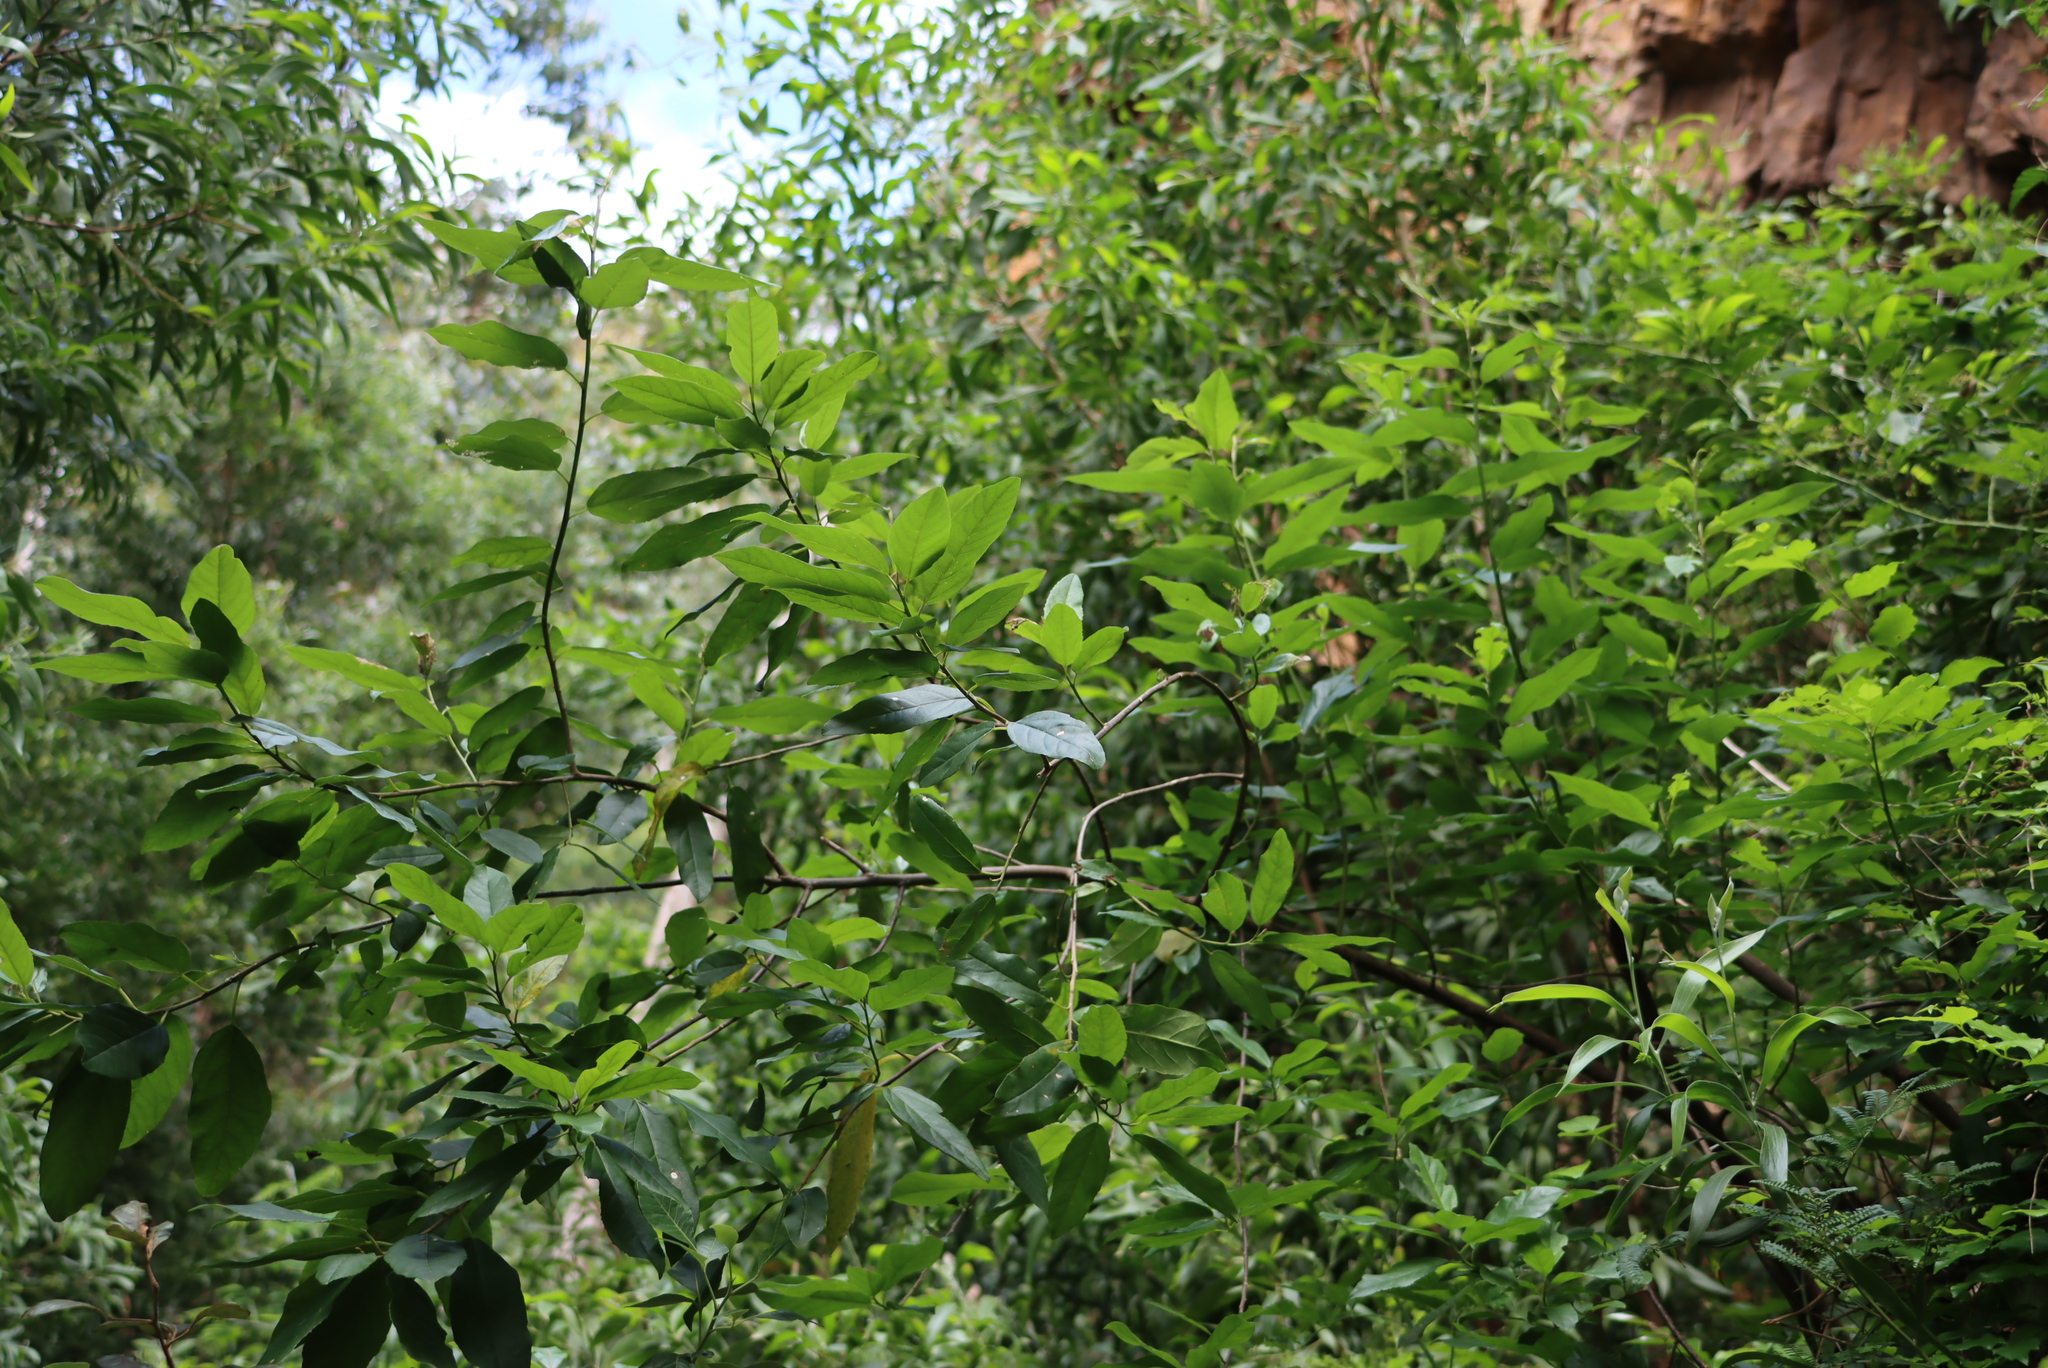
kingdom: Plantae
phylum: Tracheophyta
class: Magnoliopsida
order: Malpighiales
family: Achariaceae
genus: Kiggelaria
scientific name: Kiggelaria africana
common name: Wild peach
